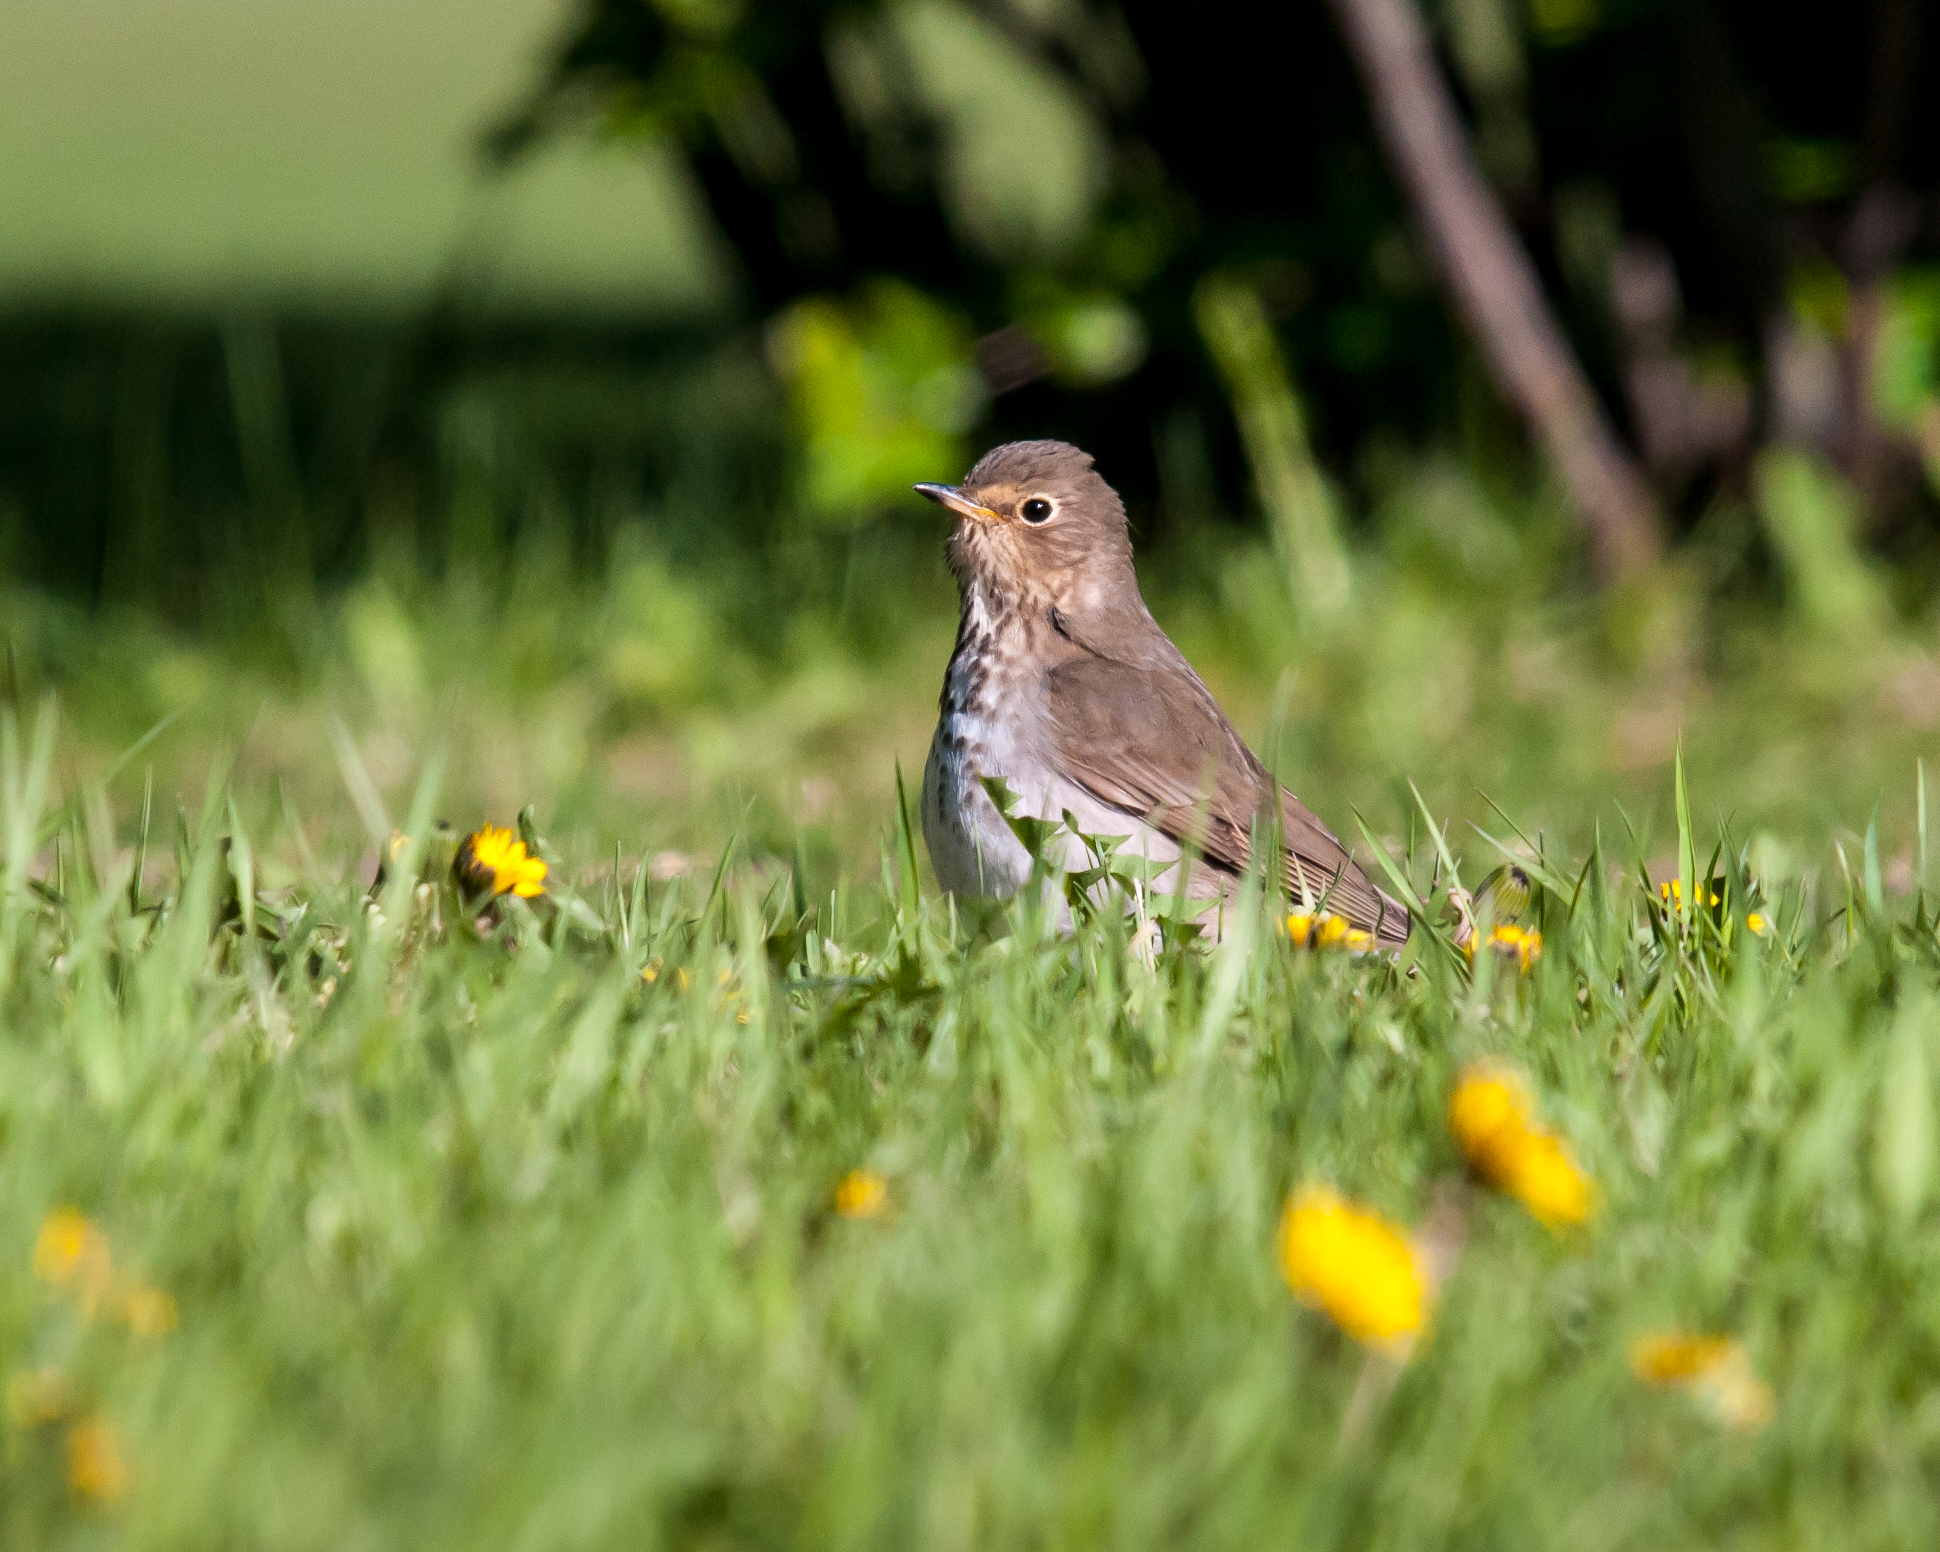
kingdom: Animalia
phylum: Chordata
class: Aves
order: Passeriformes
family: Turdidae
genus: Catharus
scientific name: Catharus ustulatus
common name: Swainson's thrush
